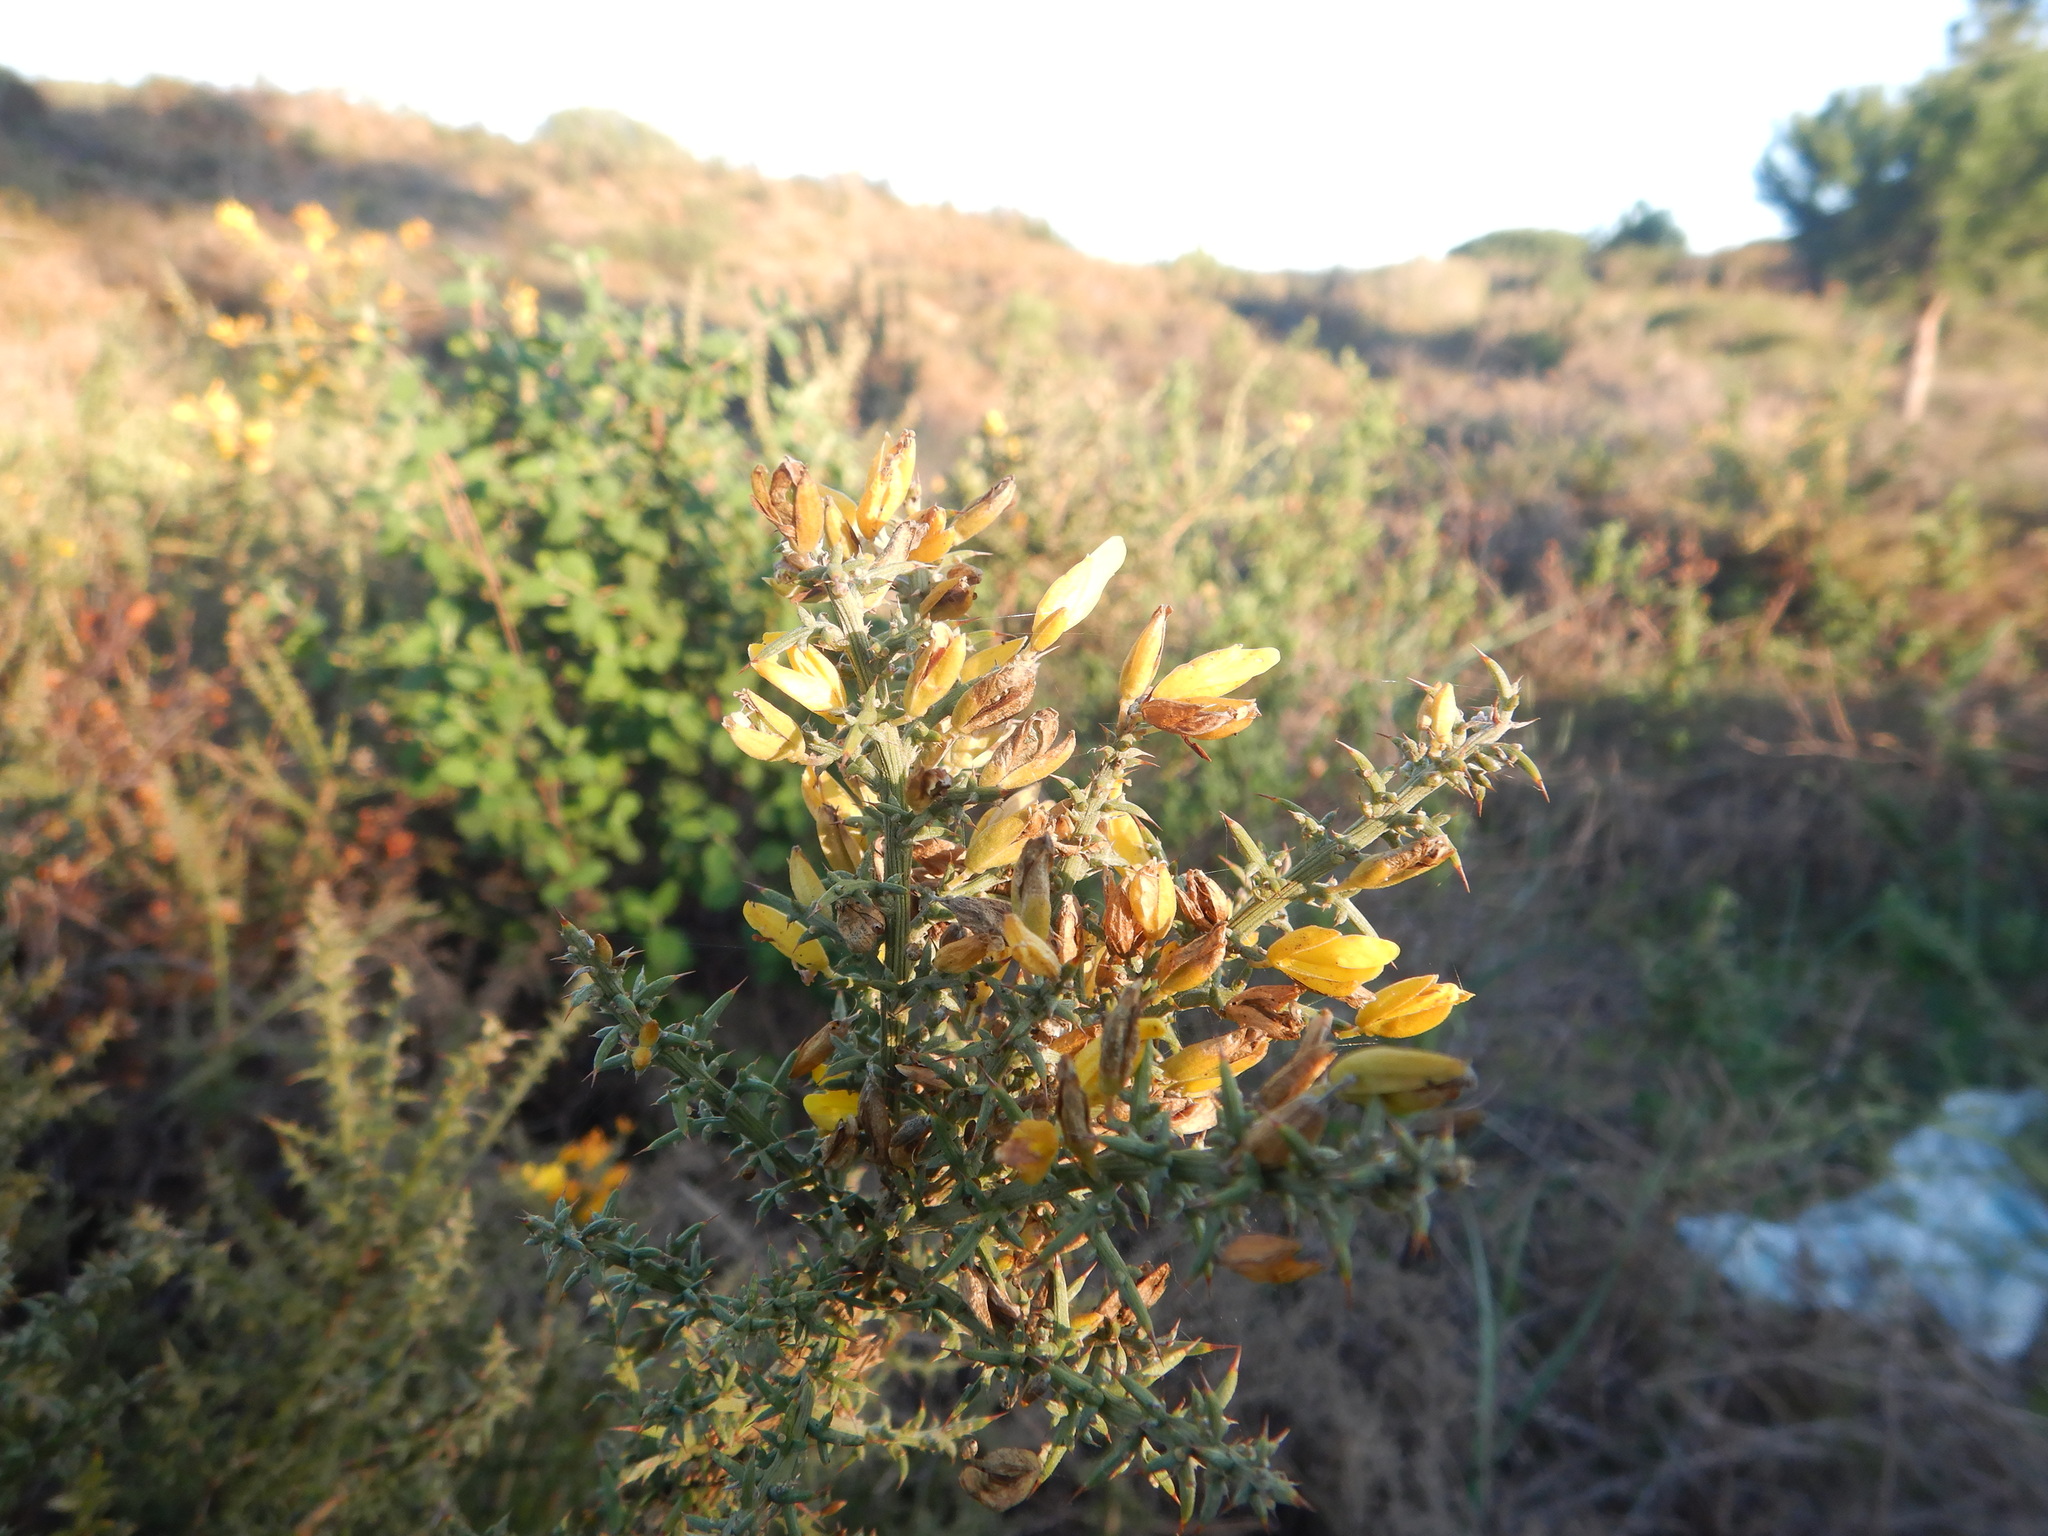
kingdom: Plantae
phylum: Tracheophyta
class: Magnoliopsida
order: Fabales
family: Fabaceae
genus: Ulex
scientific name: Ulex argenteus
